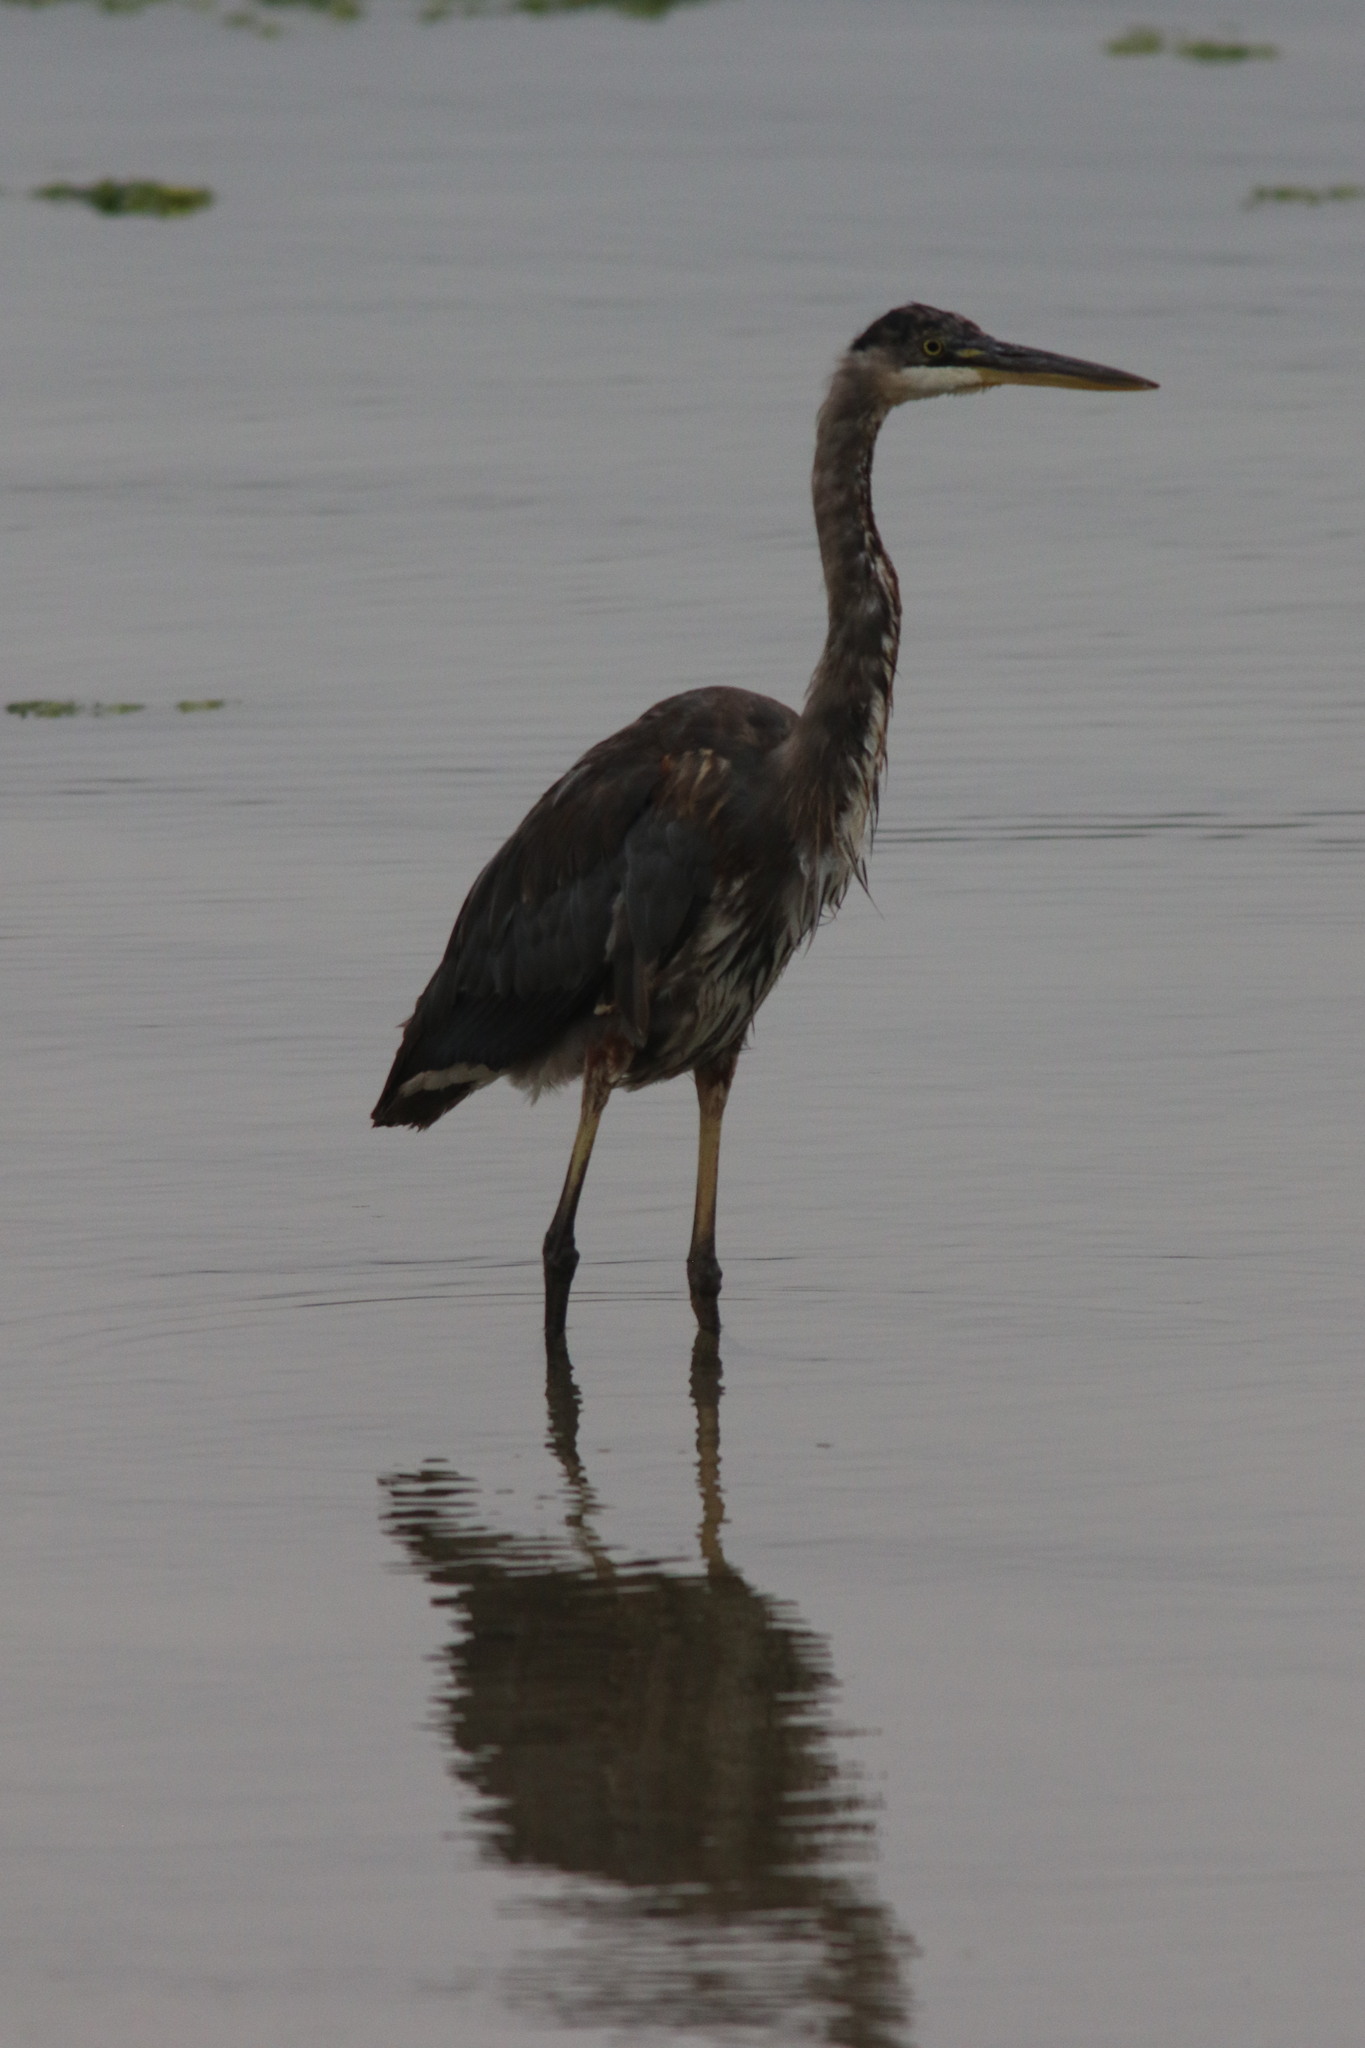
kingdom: Animalia
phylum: Chordata
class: Aves
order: Pelecaniformes
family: Ardeidae
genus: Ardea
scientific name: Ardea herodias
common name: Great blue heron
